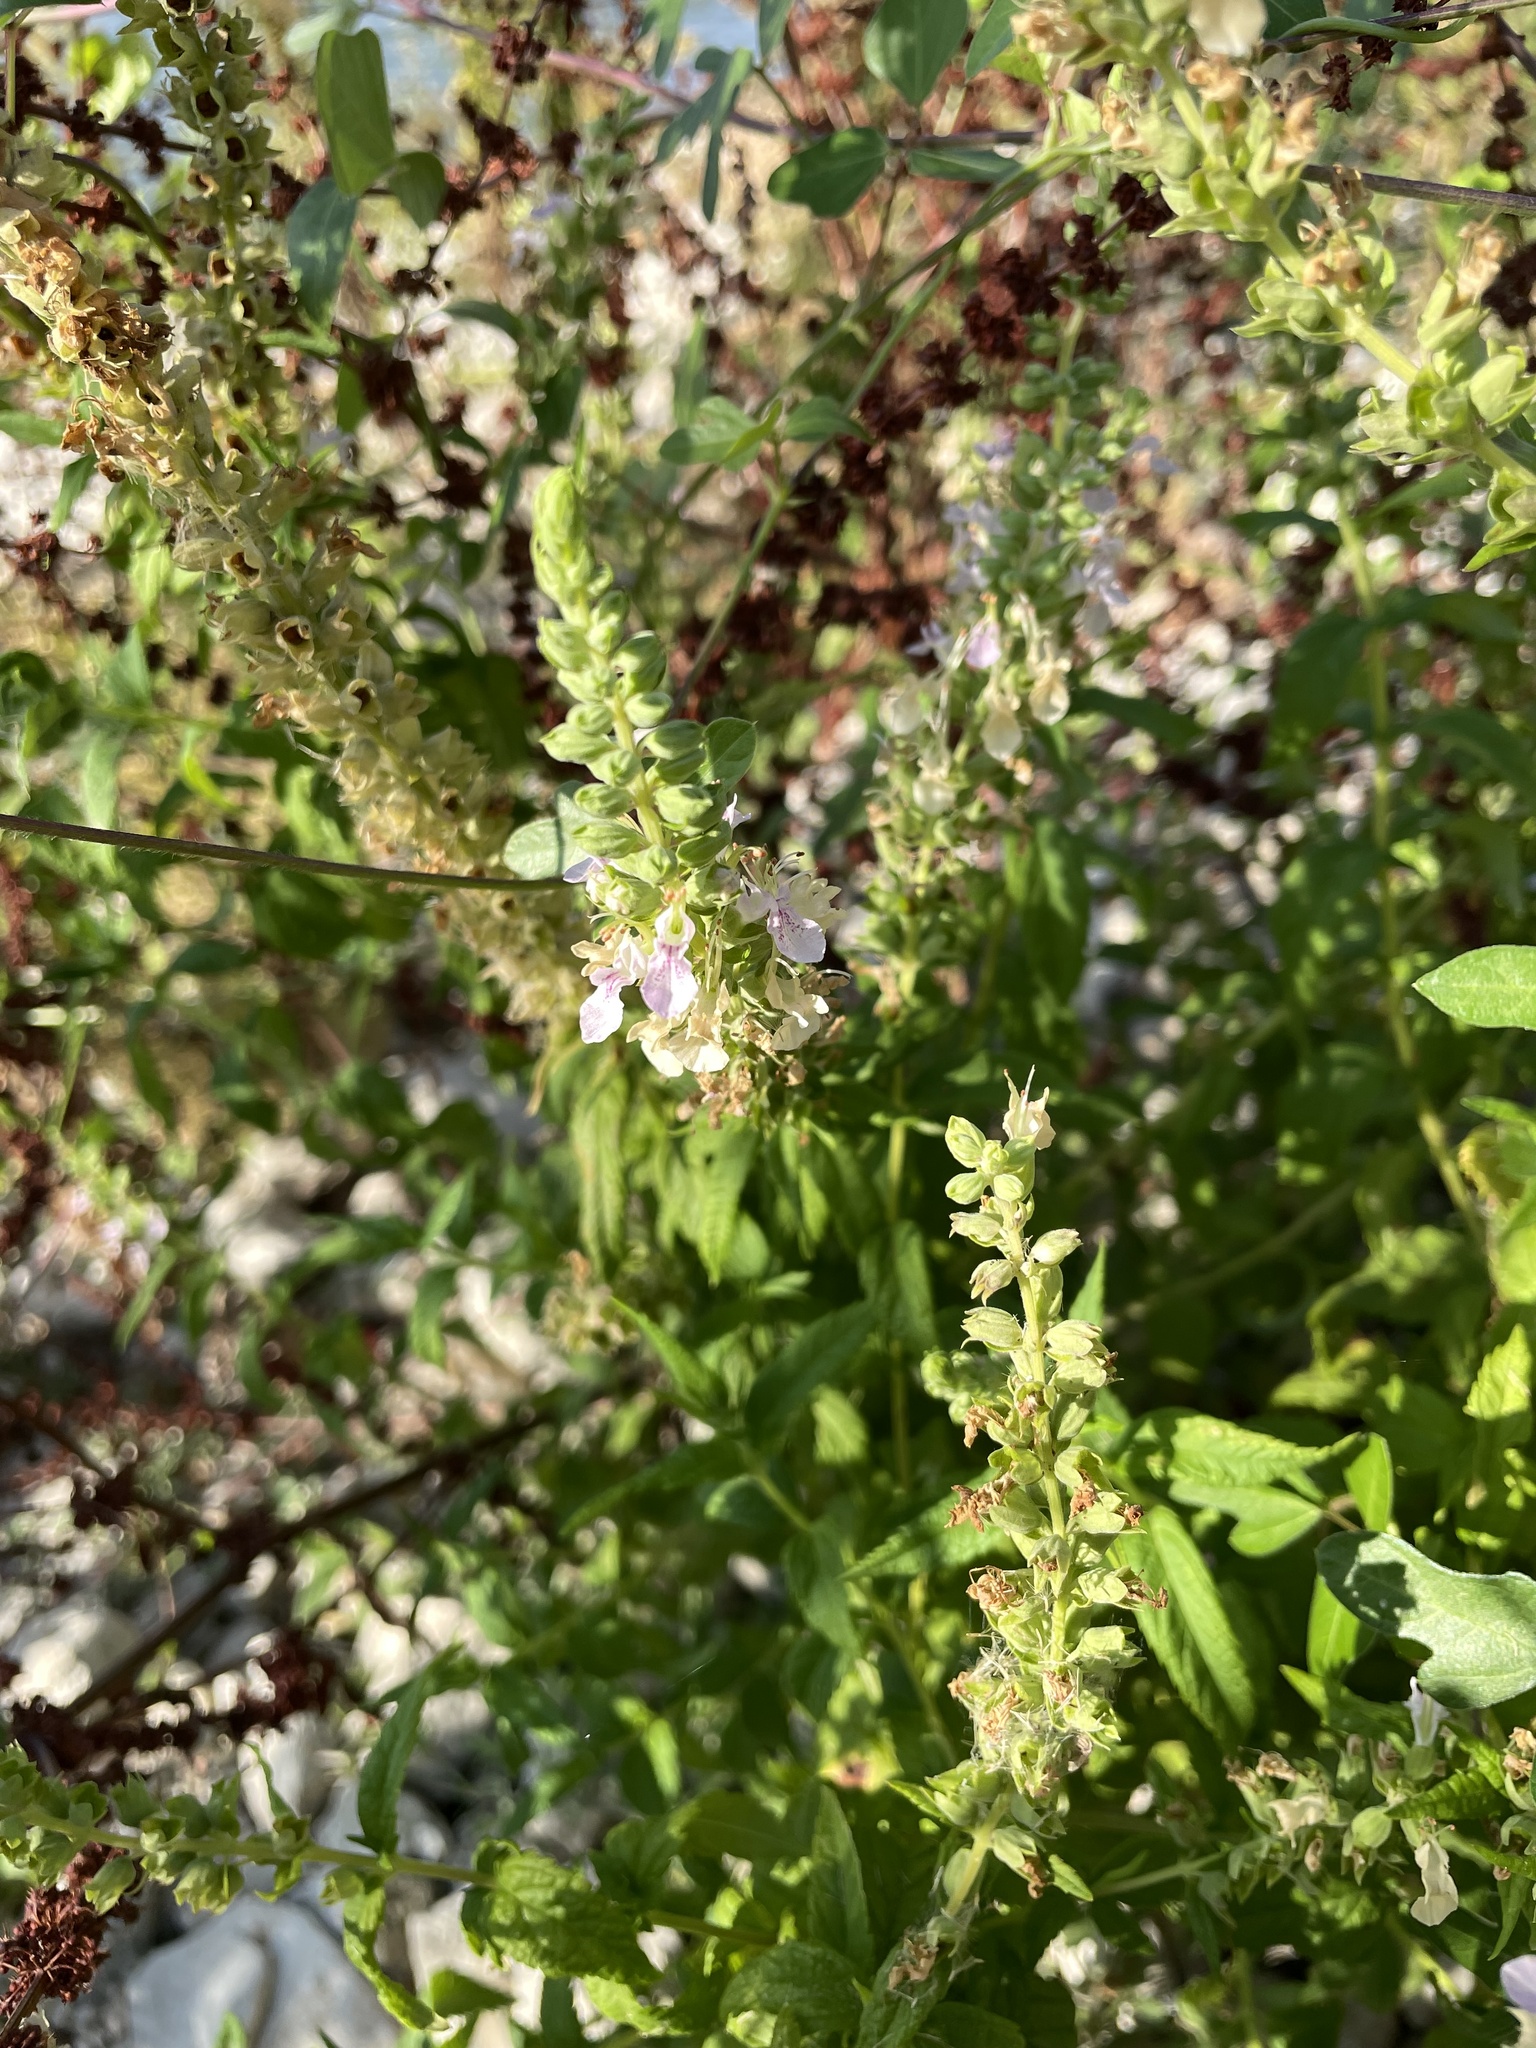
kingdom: Plantae
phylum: Tracheophyta
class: Magnoliopsida
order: Lamiales
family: Lamiaceae
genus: Teucrium
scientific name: Teucrium canadense
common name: American germander
